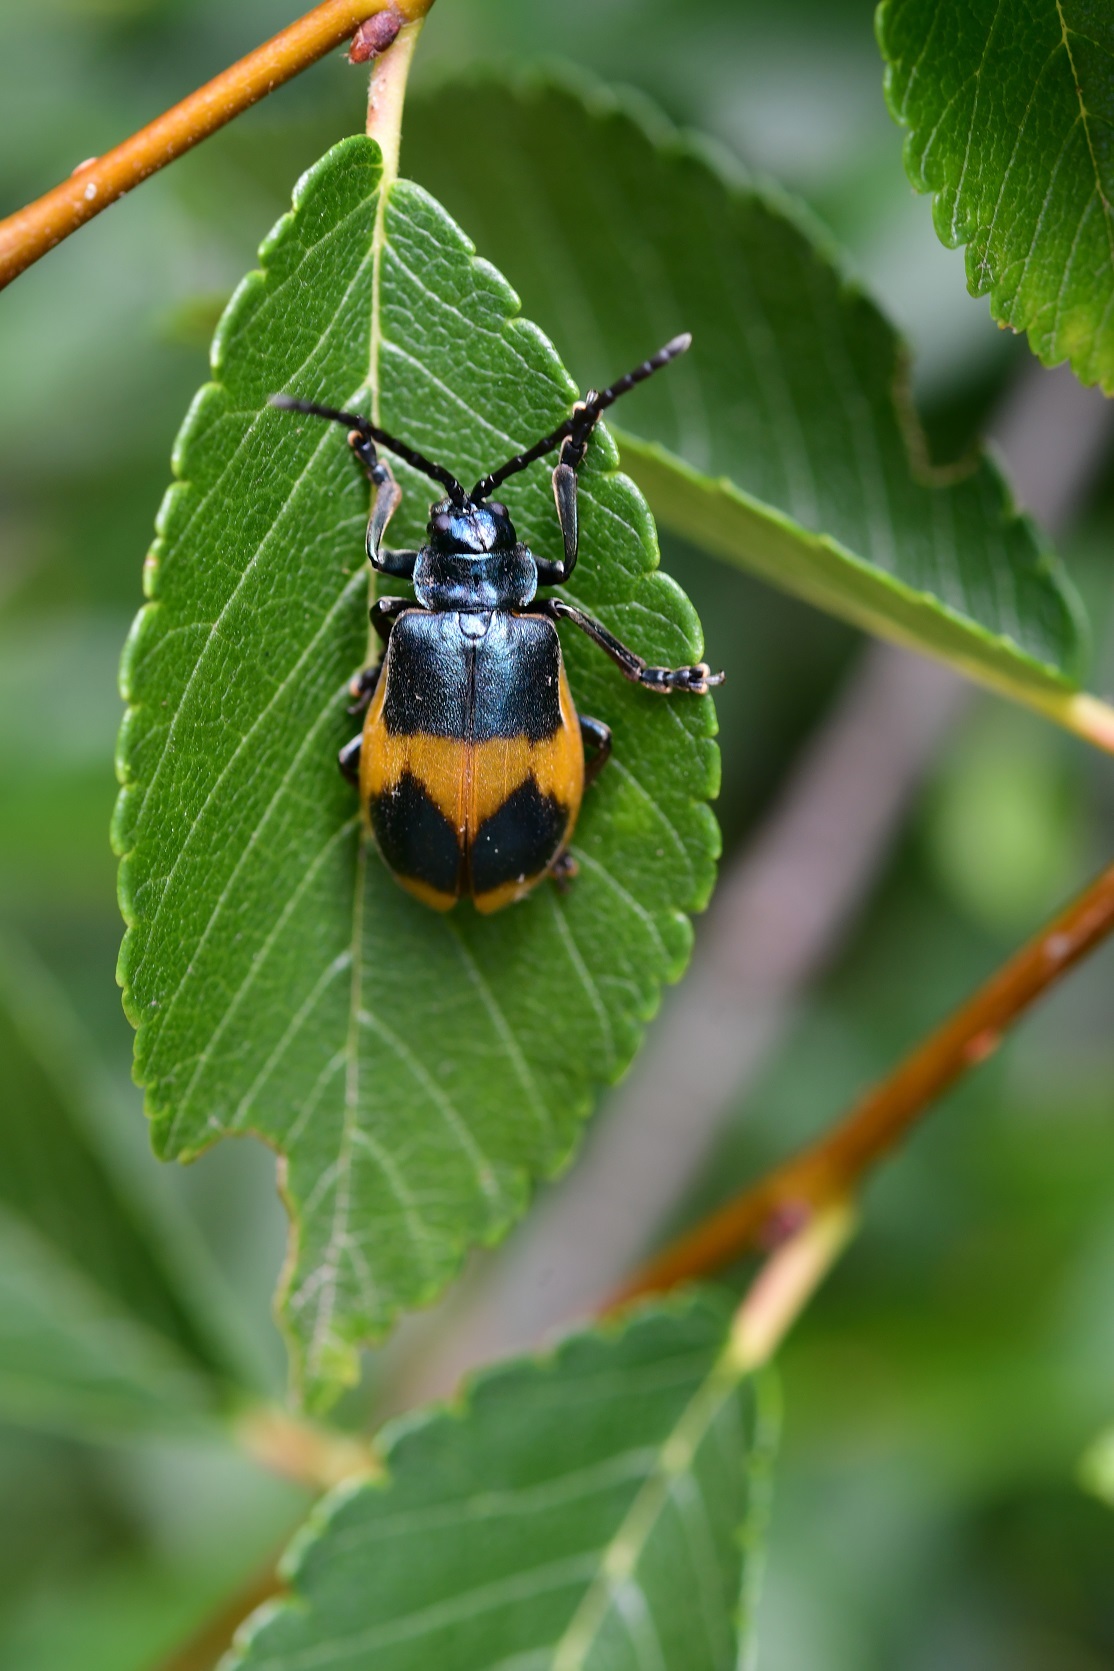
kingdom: Animalia
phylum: Arthropoda
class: Insecta
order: Coleoptera
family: Chrysomelidae
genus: Monocesta
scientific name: Monocesta
